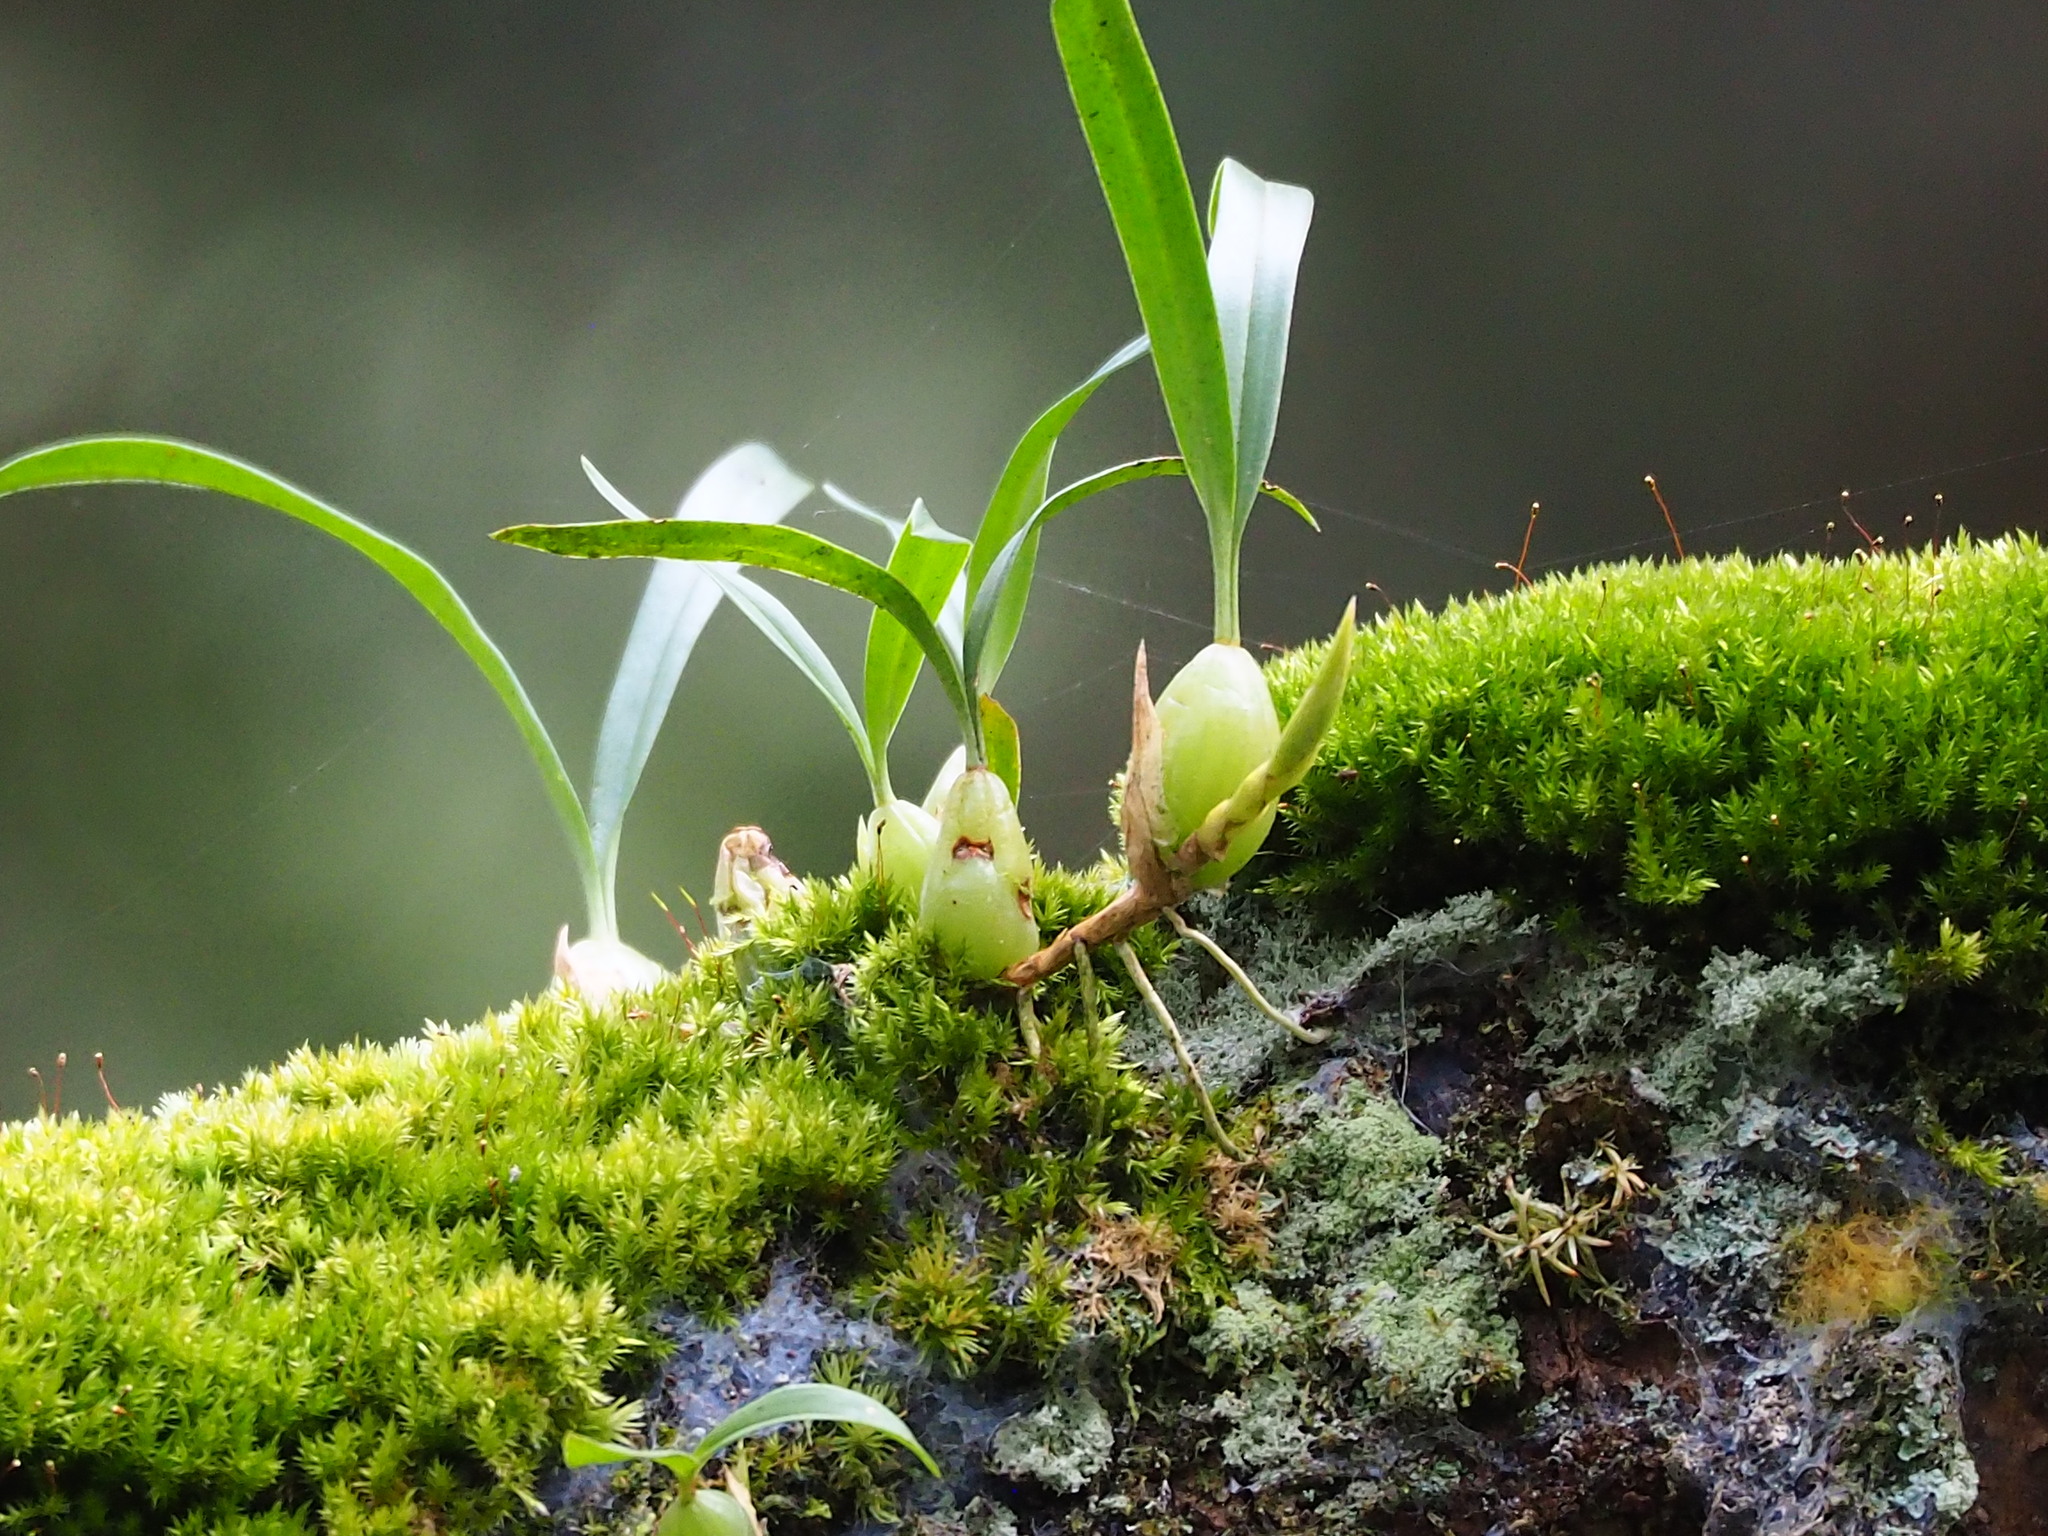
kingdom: Plantae
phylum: Tracheophyta
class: Liliopsida
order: Asparagales
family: Orchidaceae
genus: Coelogyne
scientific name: Coelogyne cantonensis
